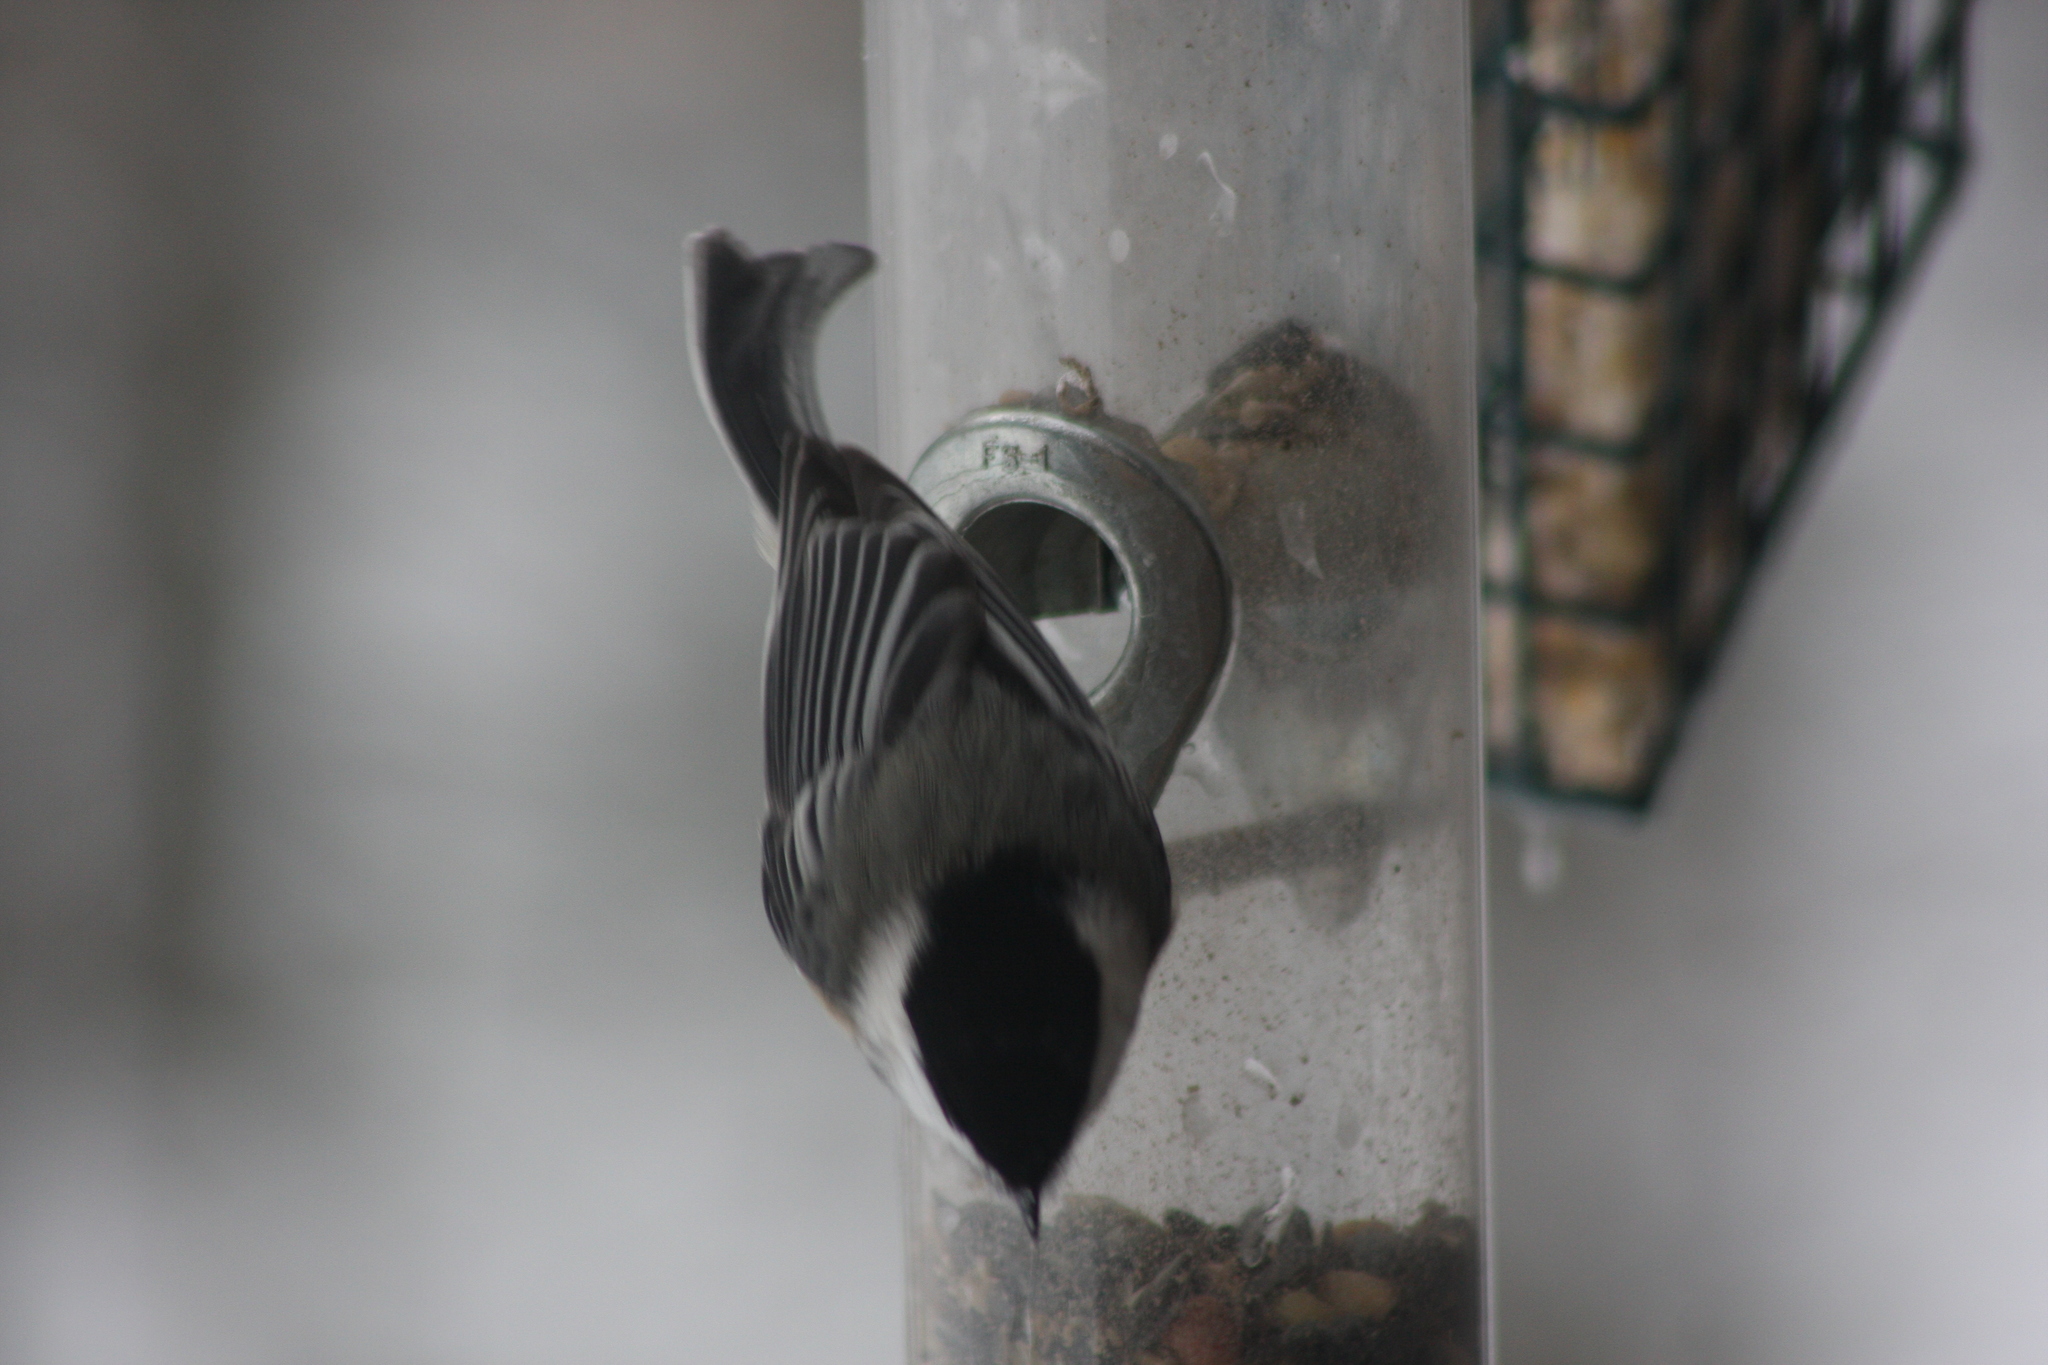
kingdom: Animalia
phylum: Chordata
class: Aves
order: Passeriformes
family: Paridae
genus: Poecile
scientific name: Poecile atricapillus
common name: Black-capped chickadee
